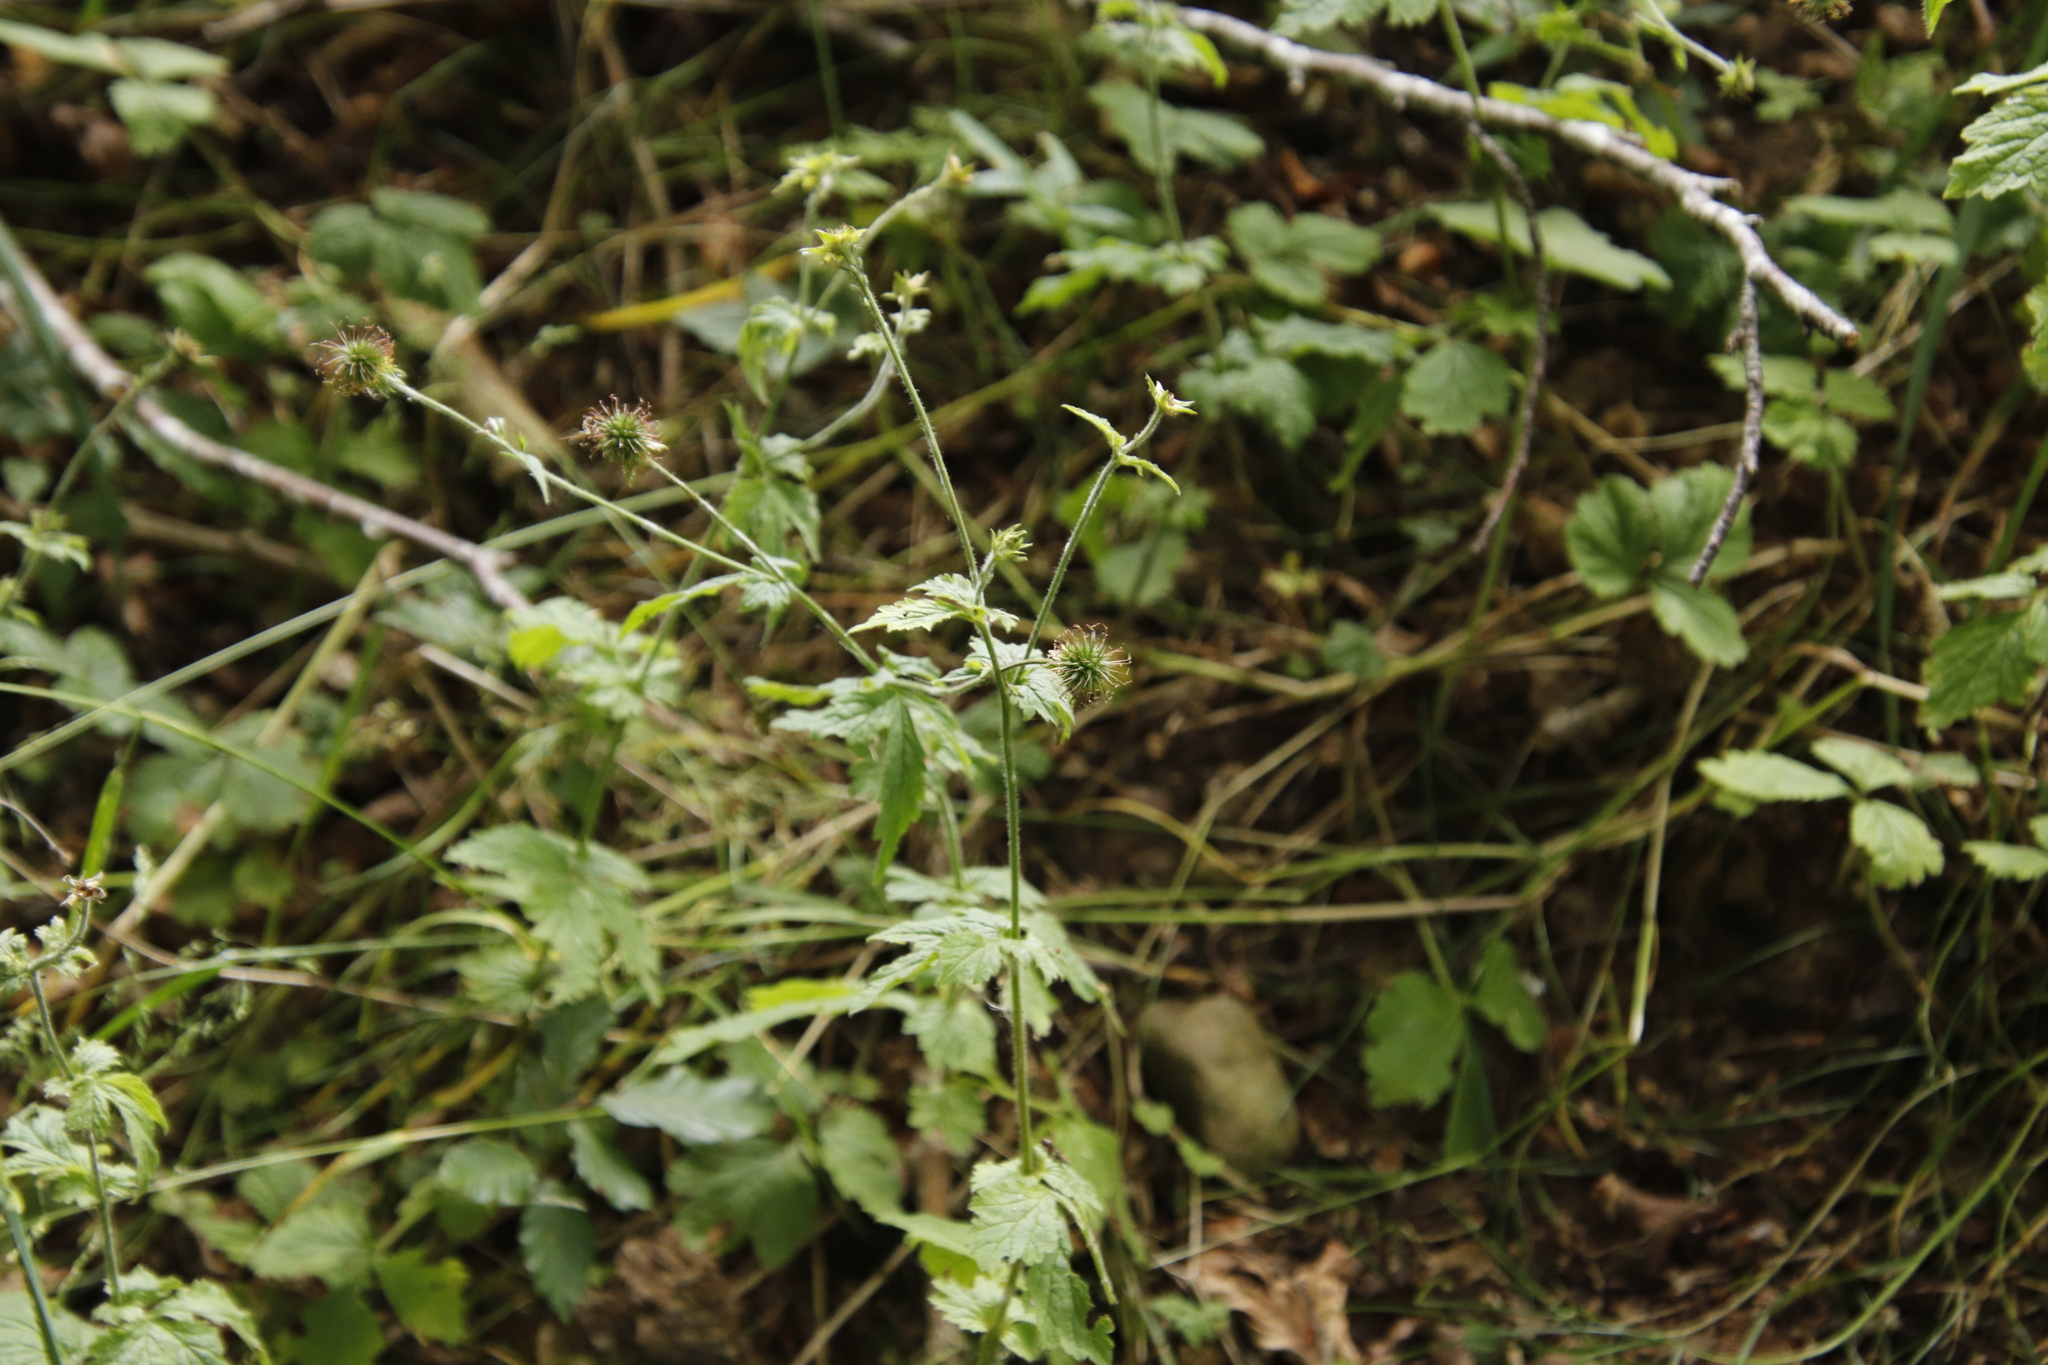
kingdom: Plantae
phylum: Tracheophyta
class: Magnoliopsida
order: Rosales
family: Rosaceae
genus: Geum
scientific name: Geum urbanum
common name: Wood avens
